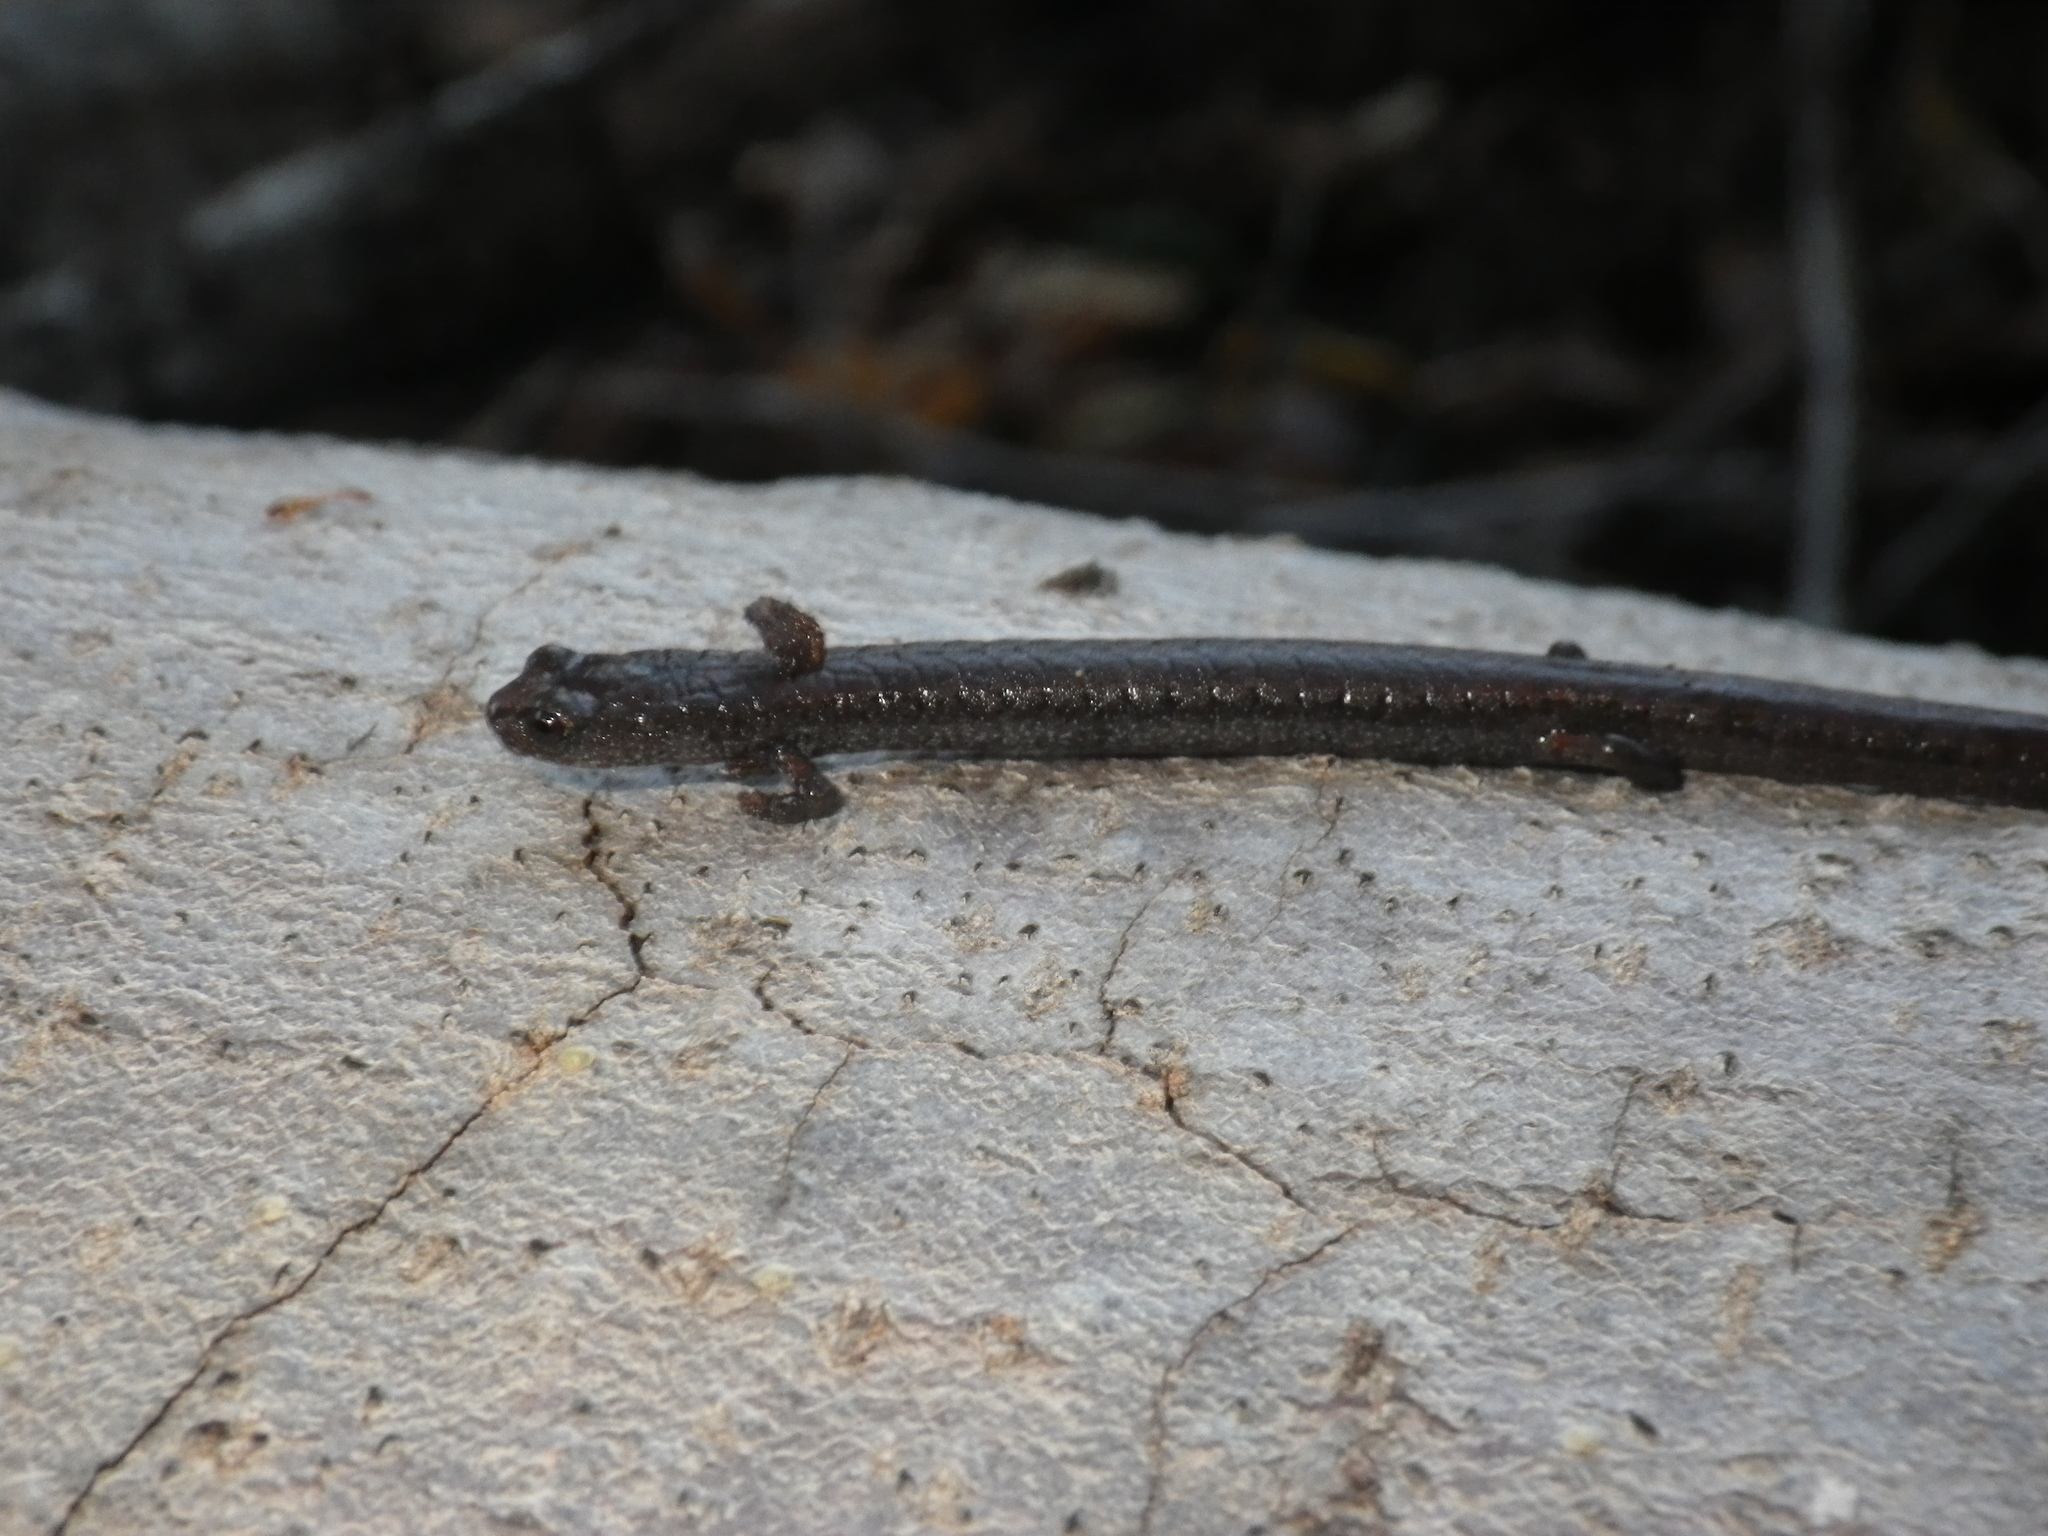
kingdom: Animalia
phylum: Chordata
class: Amphibia
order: Caudata
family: Plethodontidae
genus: Batrachoseps
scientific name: Batrachoseps attenuatus
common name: California slender salamander
